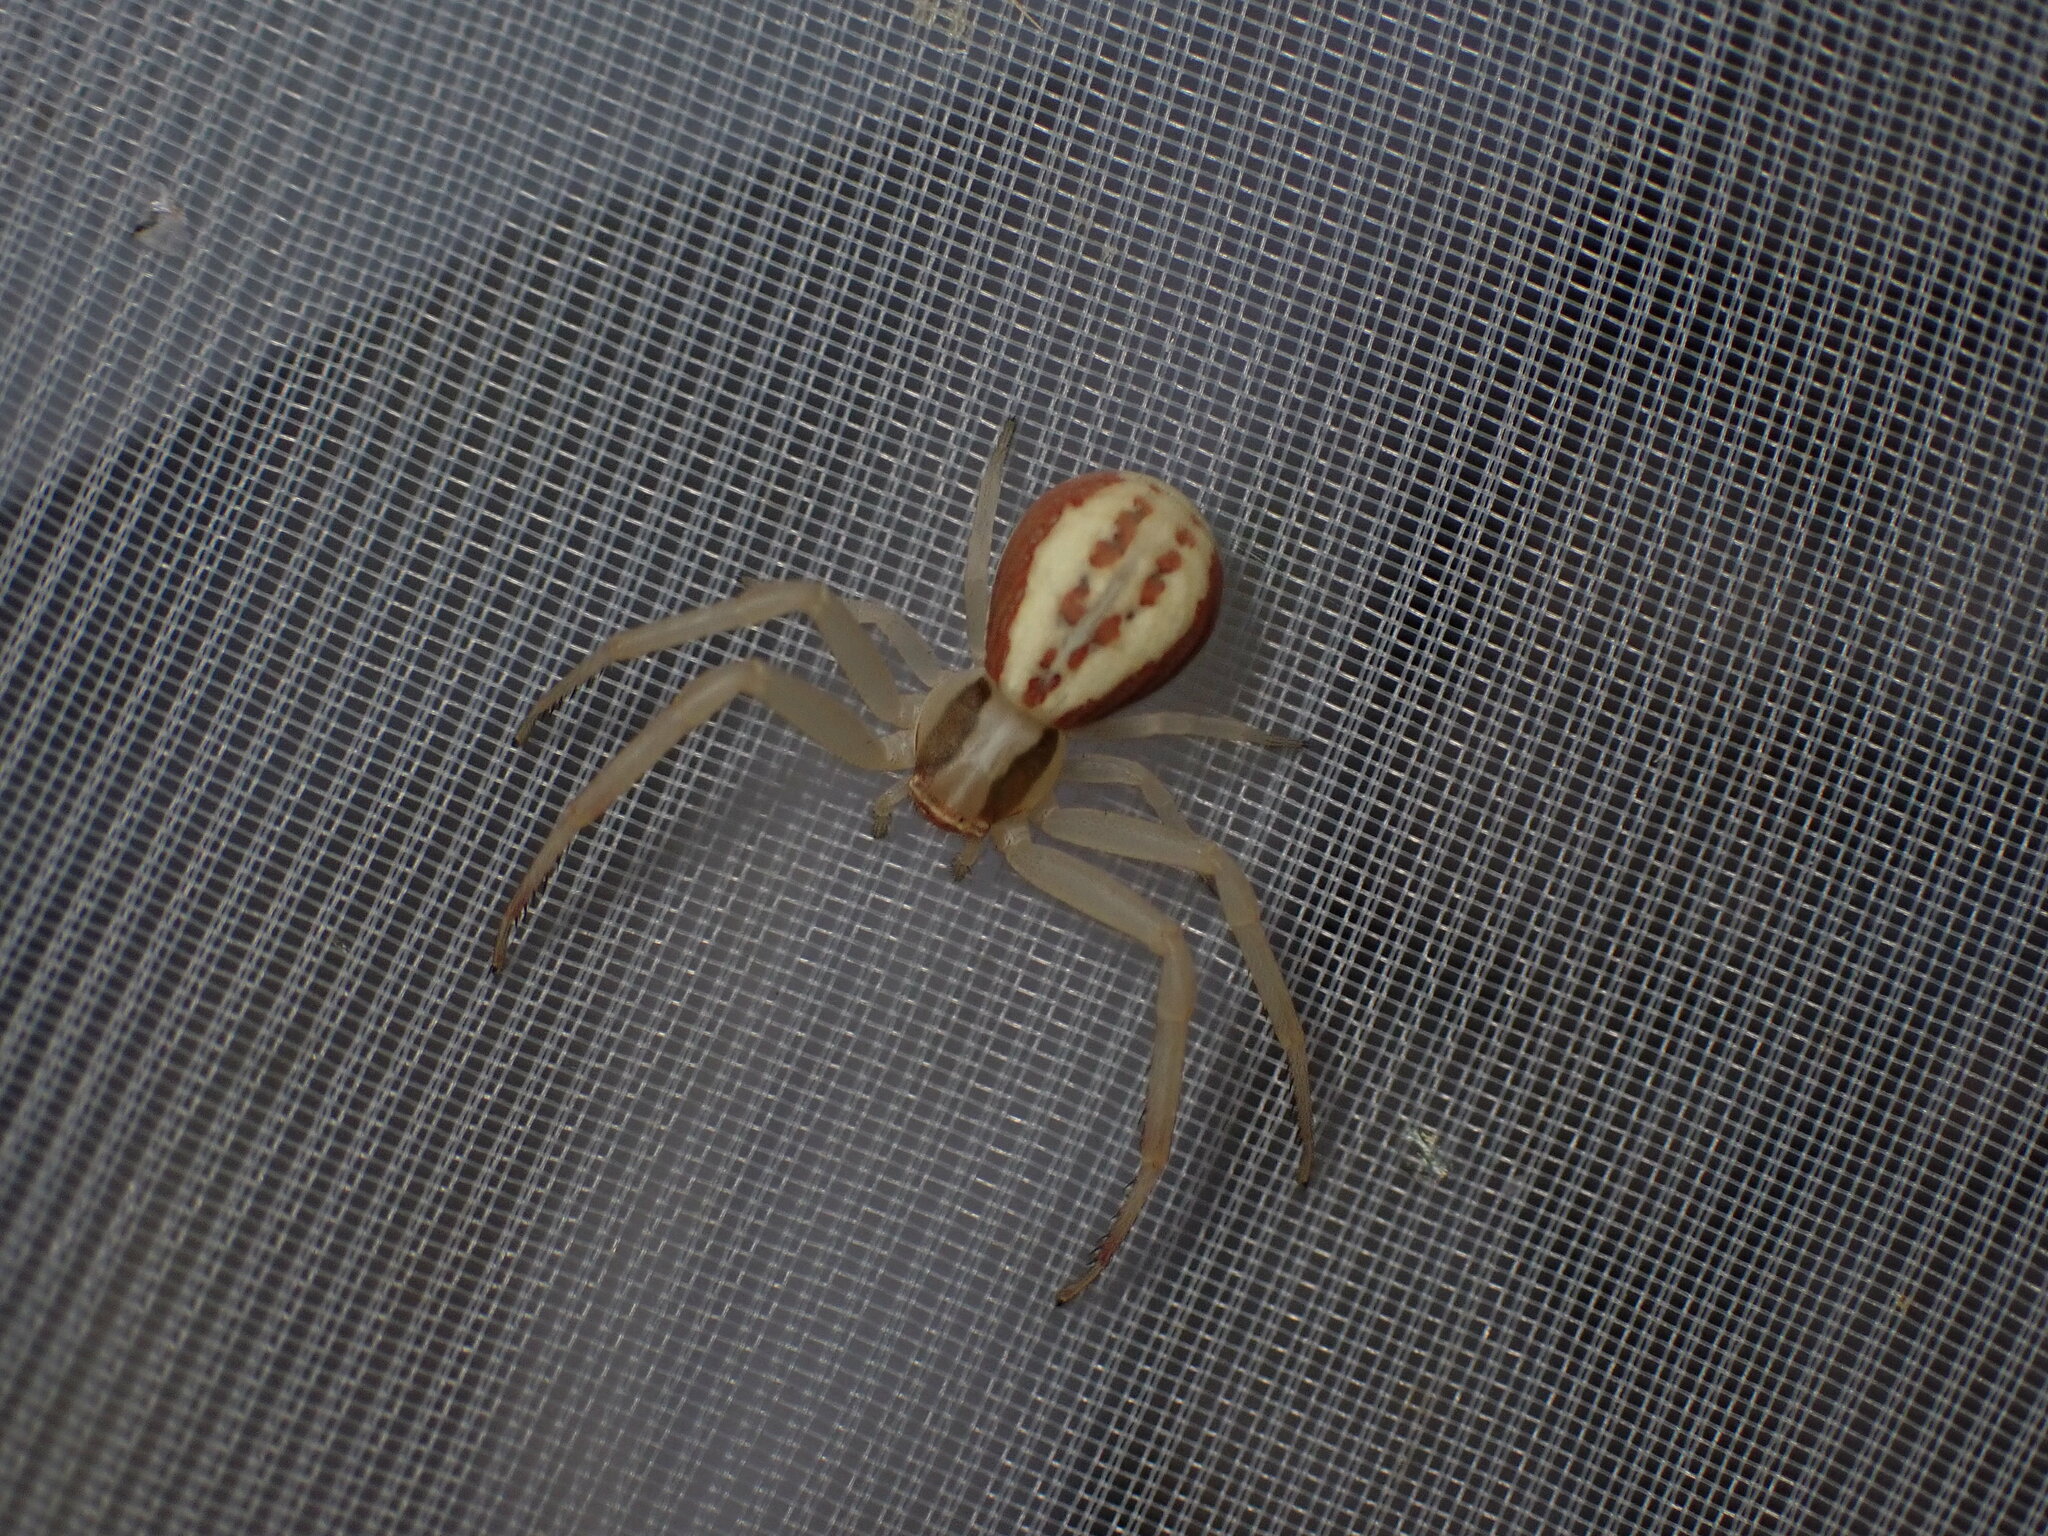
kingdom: Animalia
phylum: Arthropoda
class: Arachnida
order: Araneae
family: Thomisidae
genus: Runcinia
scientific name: Runcinia grammica
